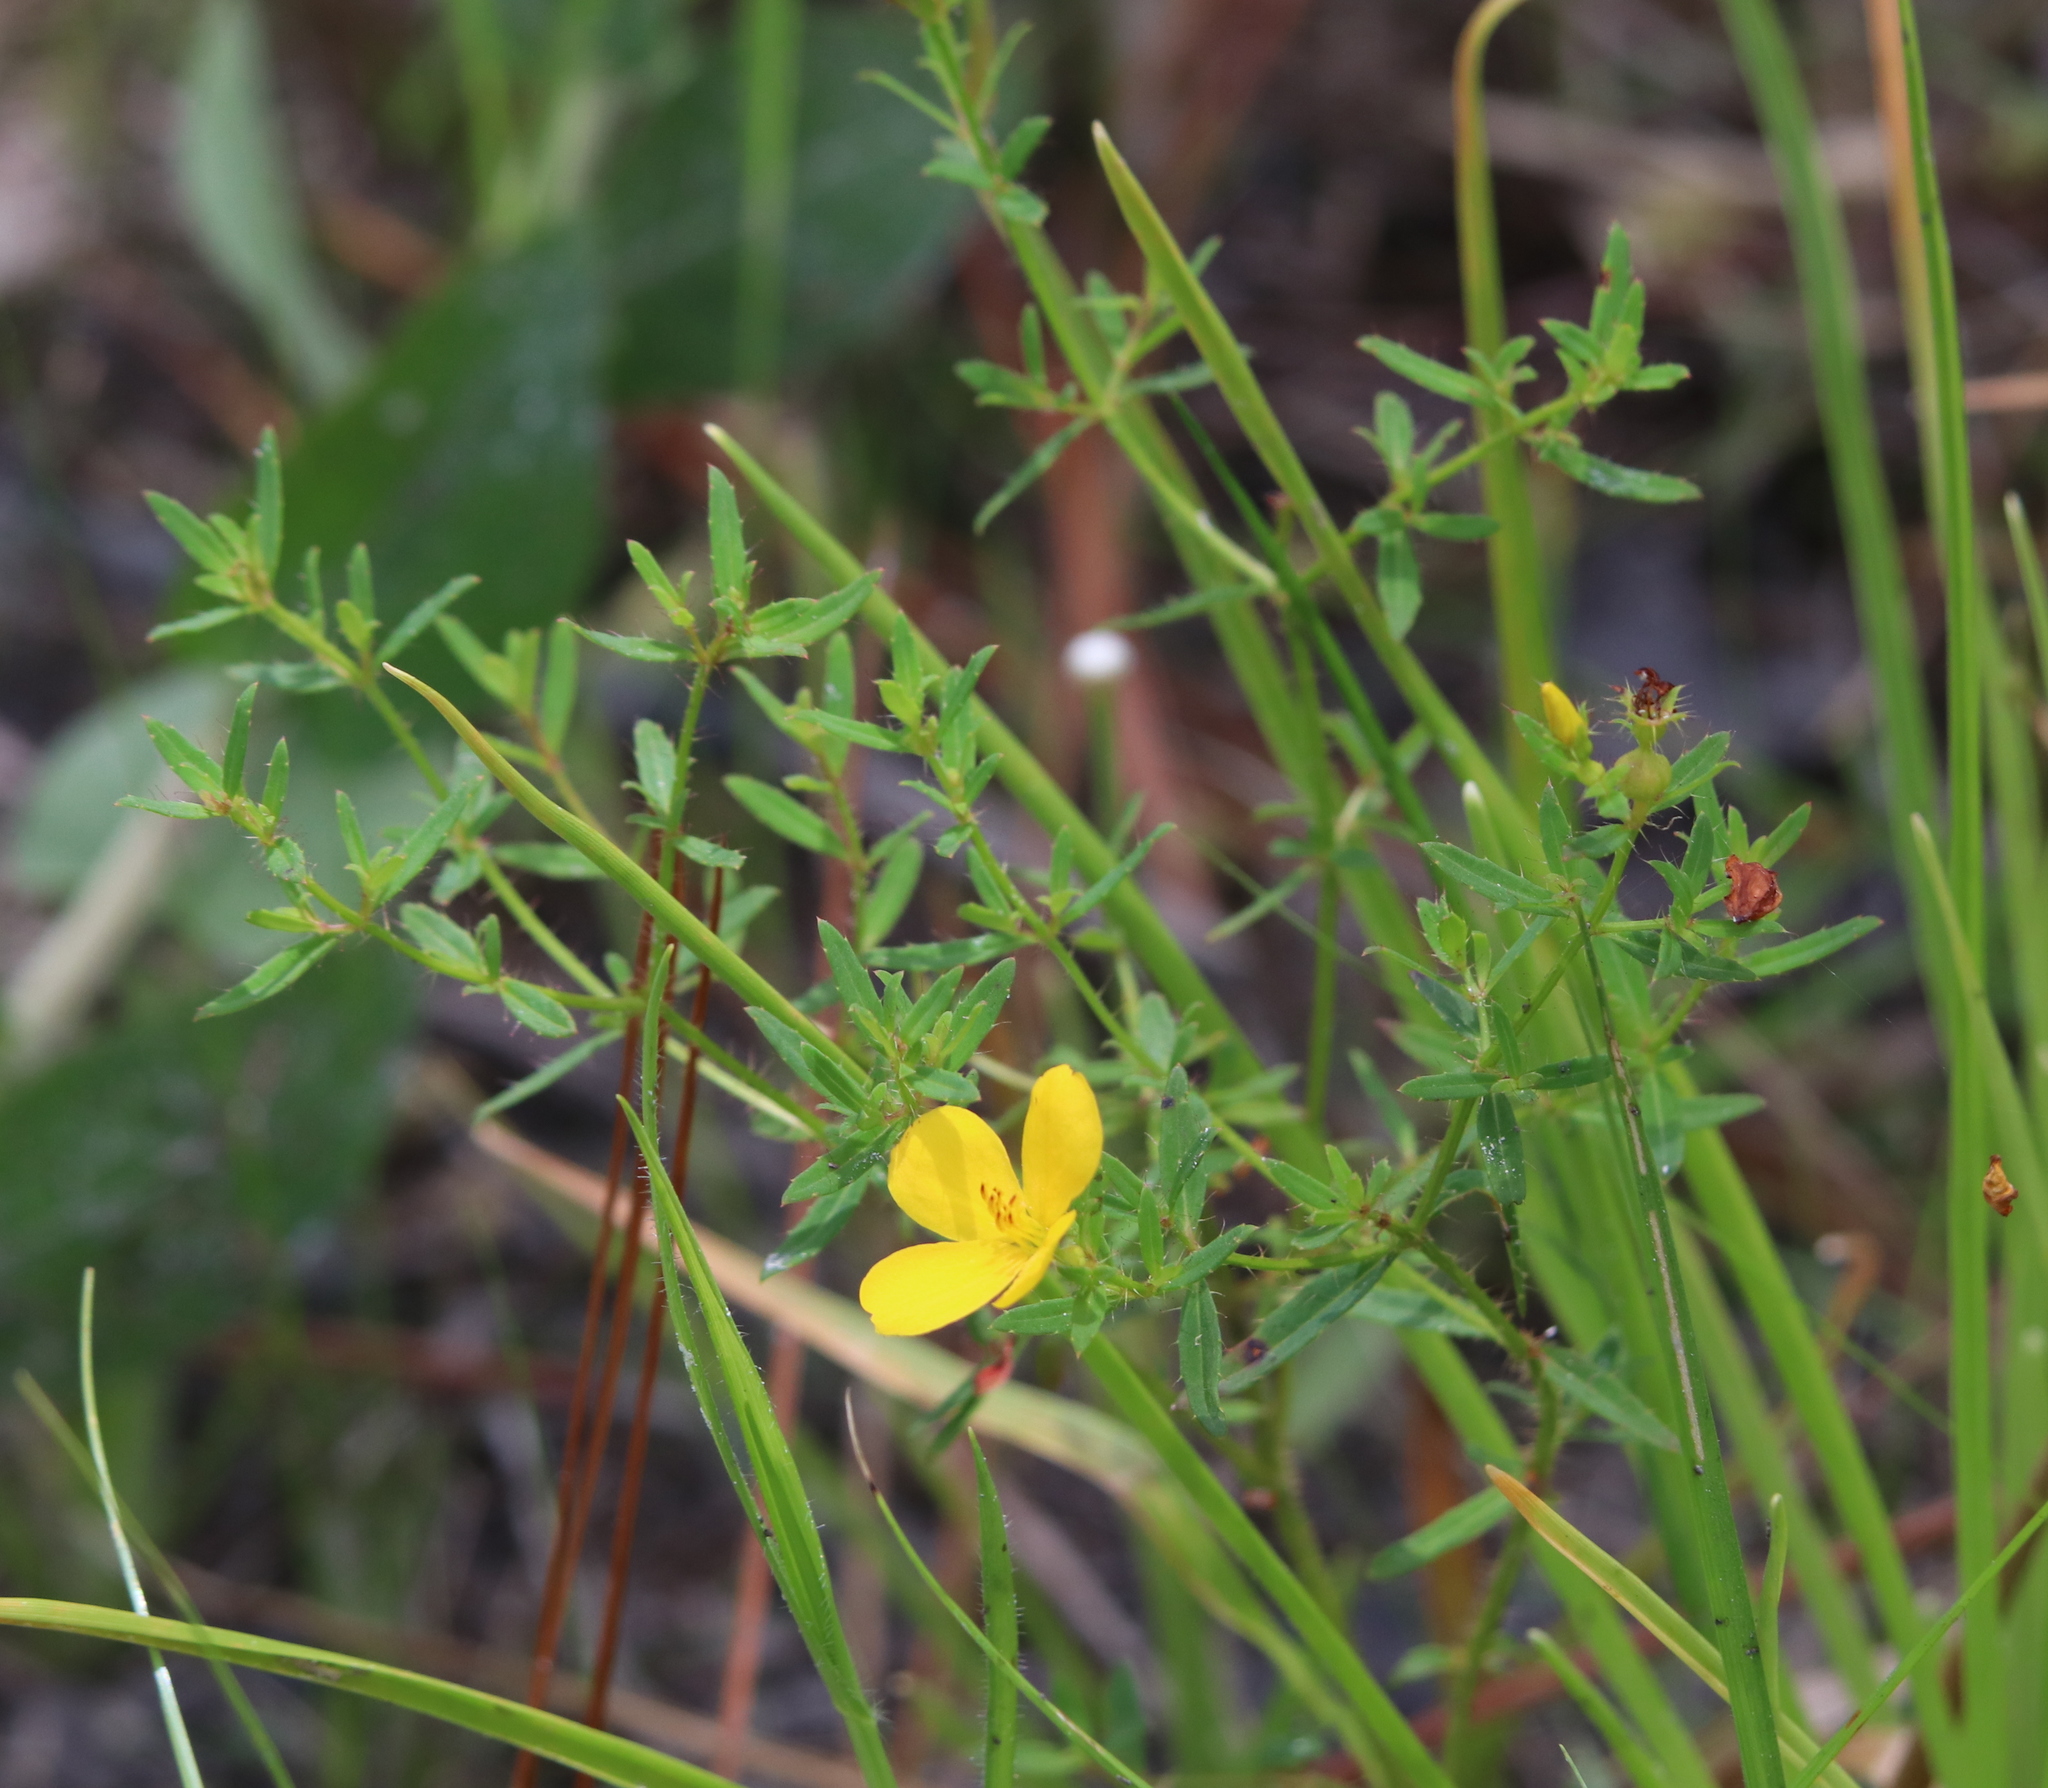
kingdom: Plantae
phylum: Tracheophyta
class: Magnoliopsida
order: Myrtales
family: Melastomataceae
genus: Rhexia
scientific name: Rhexia lutea
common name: Golden meadow-beauty
